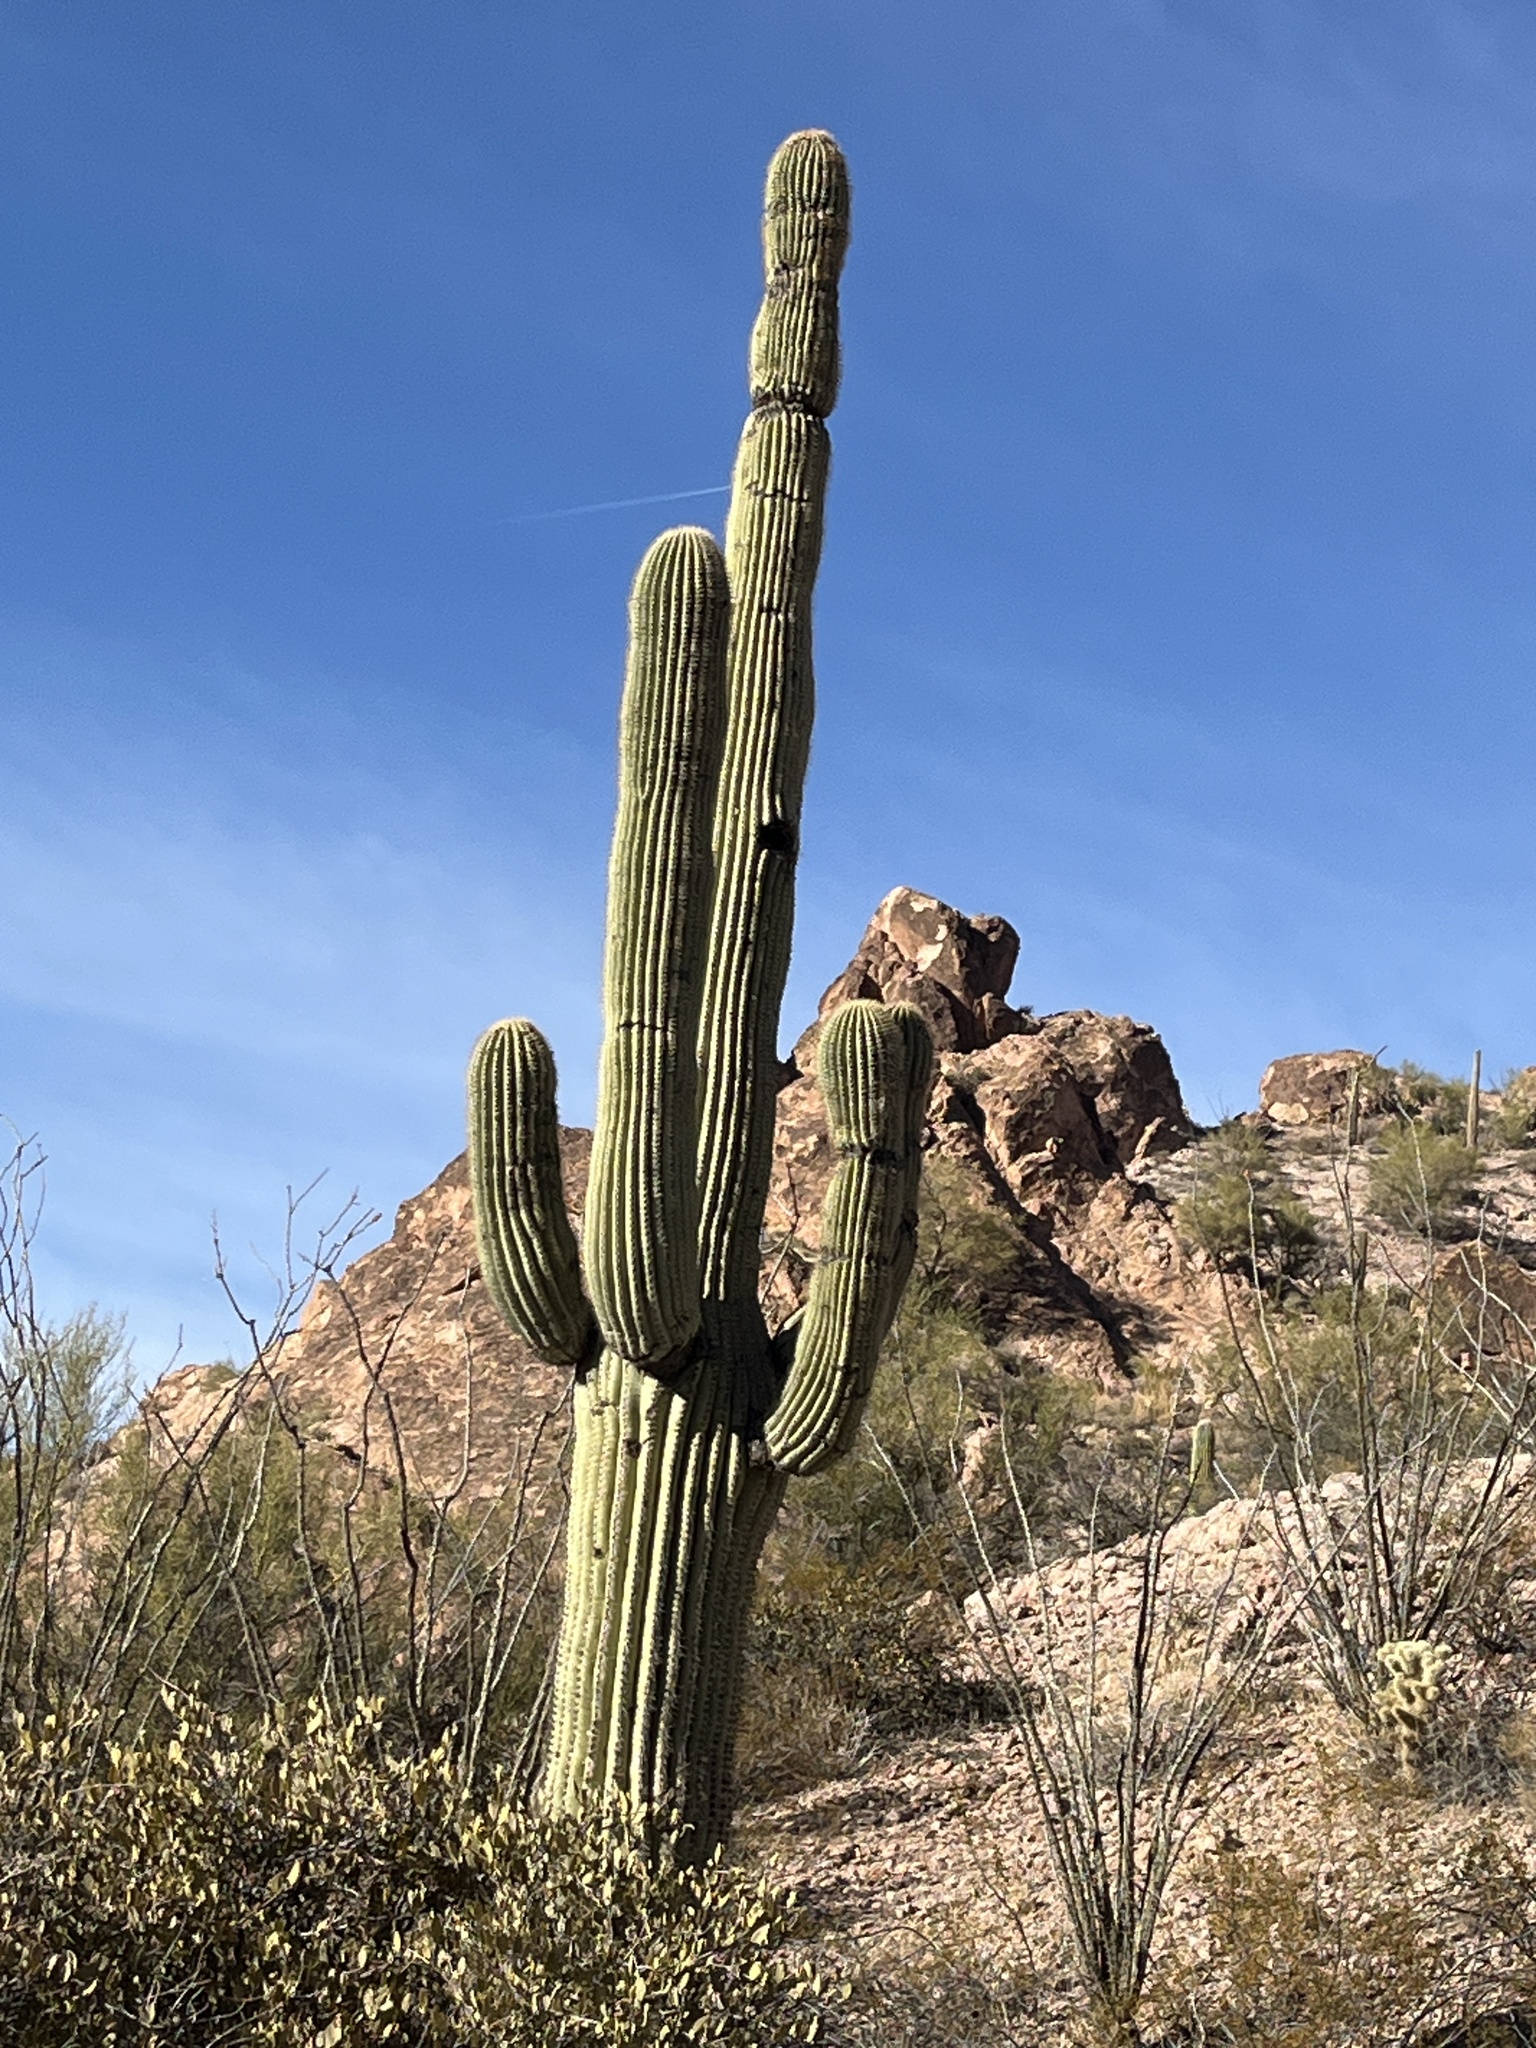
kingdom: Plantae
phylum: Tracheophyta
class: Magnoliopsida
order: Caryophyllales
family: Cactaceae
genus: Carnegiea
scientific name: Carnegiea gigantea
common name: Saguaro
